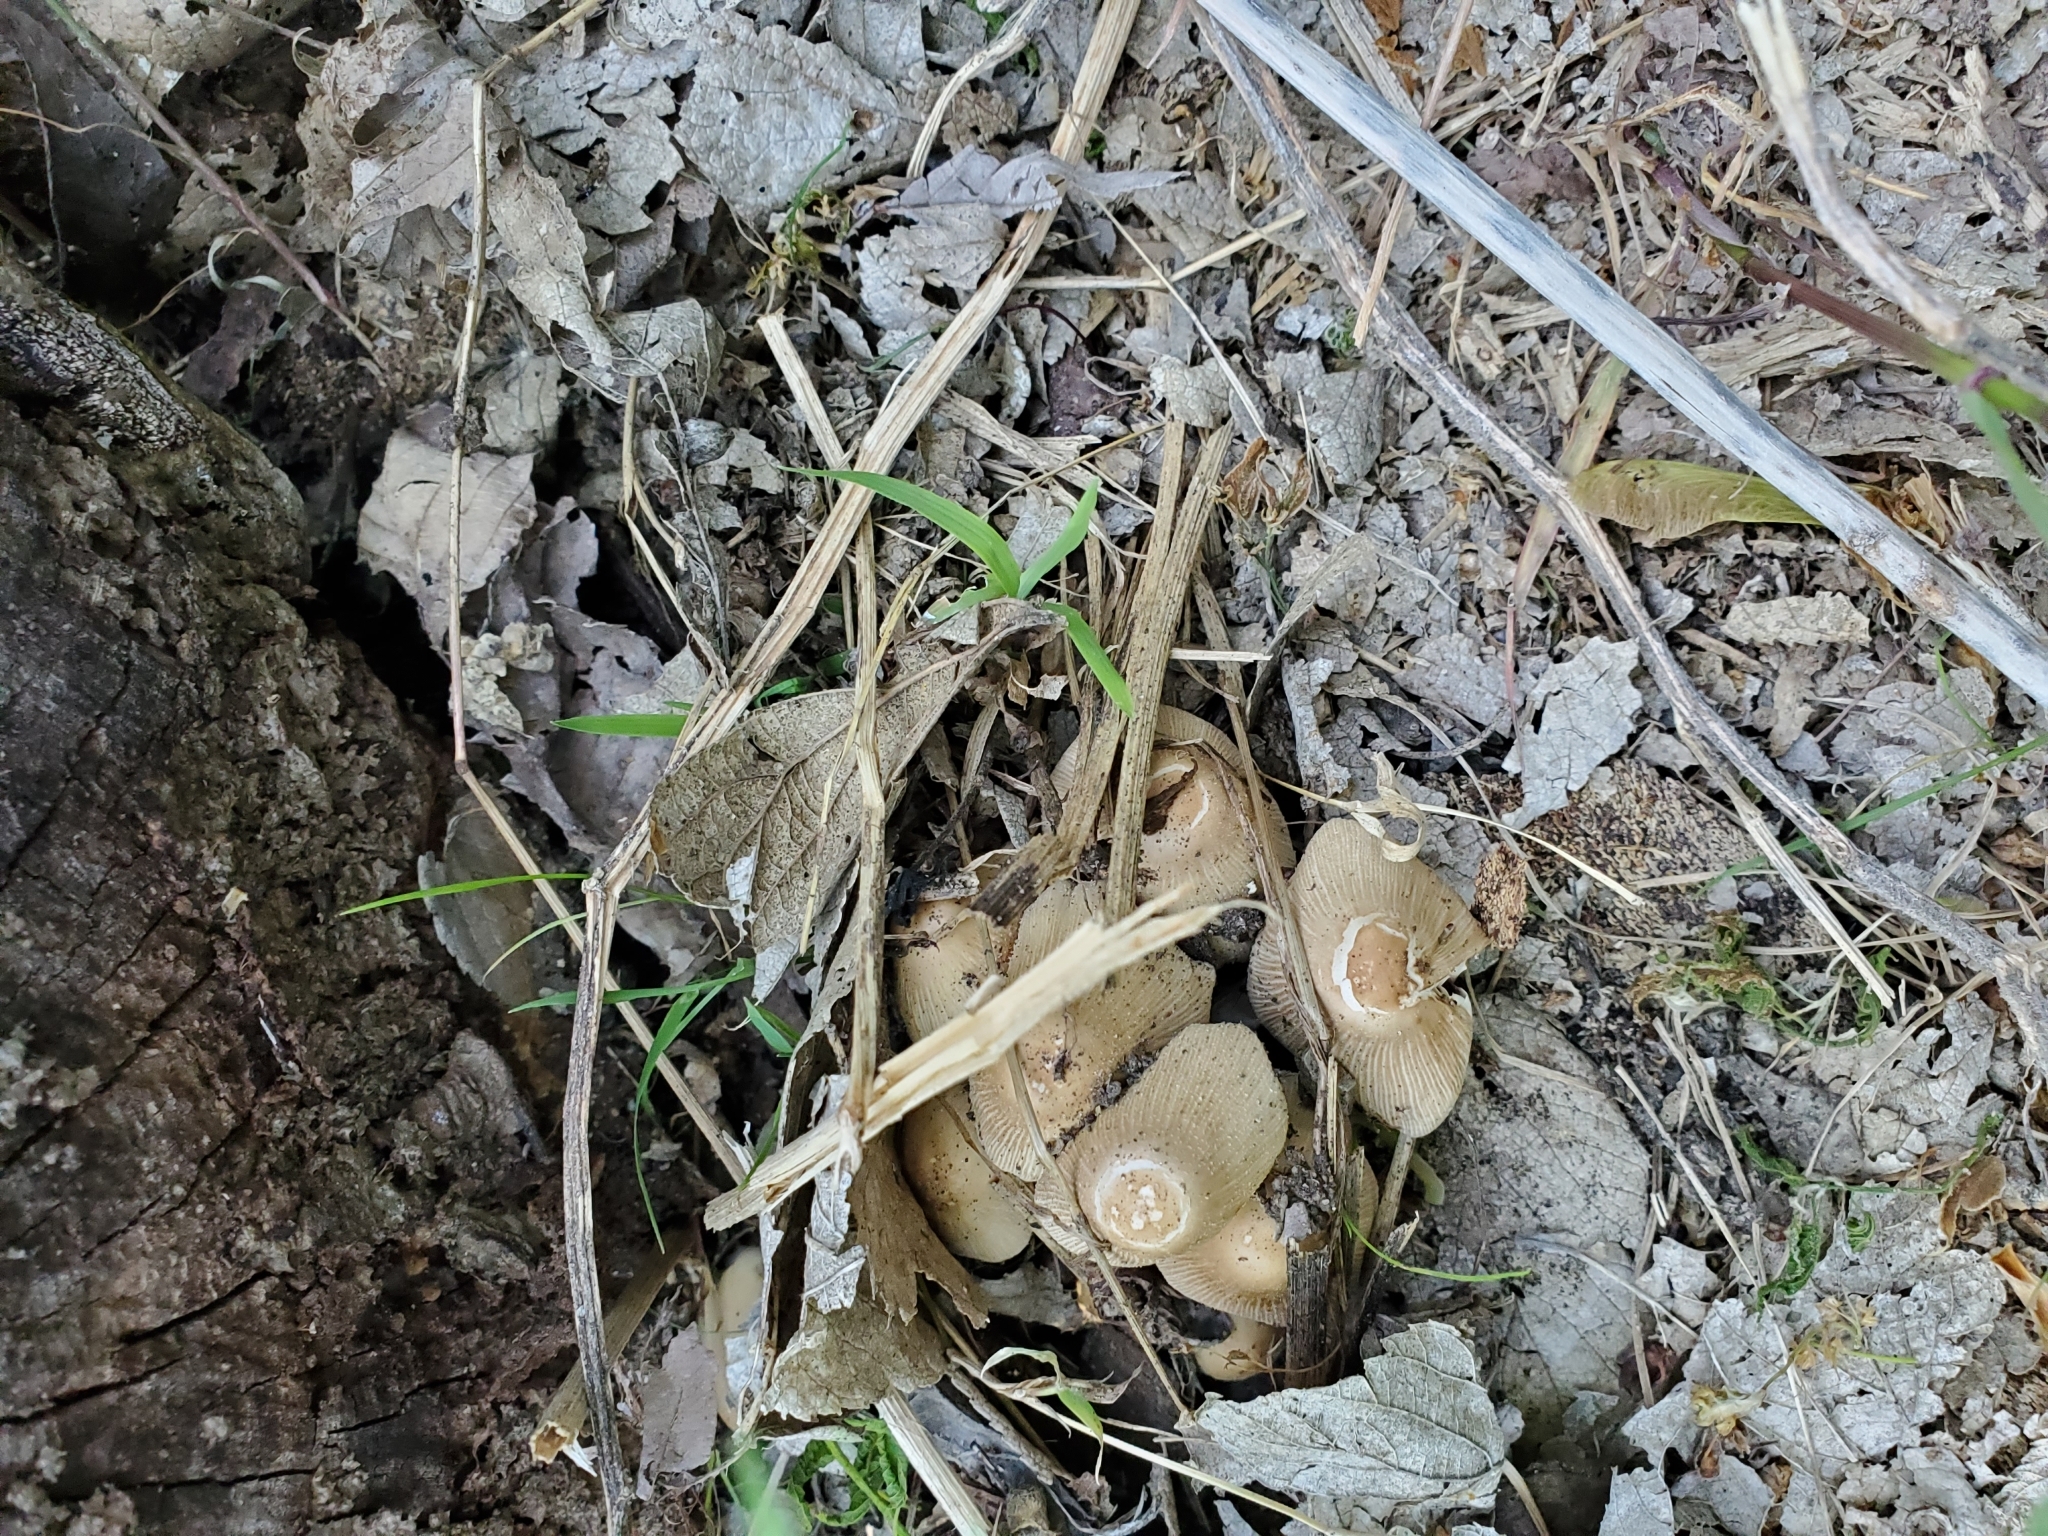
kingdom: Fungi
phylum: Basidiomycota
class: Agaricomycetes
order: Agaricales
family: Psathyrellaceae
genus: Coprinellus
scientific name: Coprinellus micaceus
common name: Glistening ink-cap
